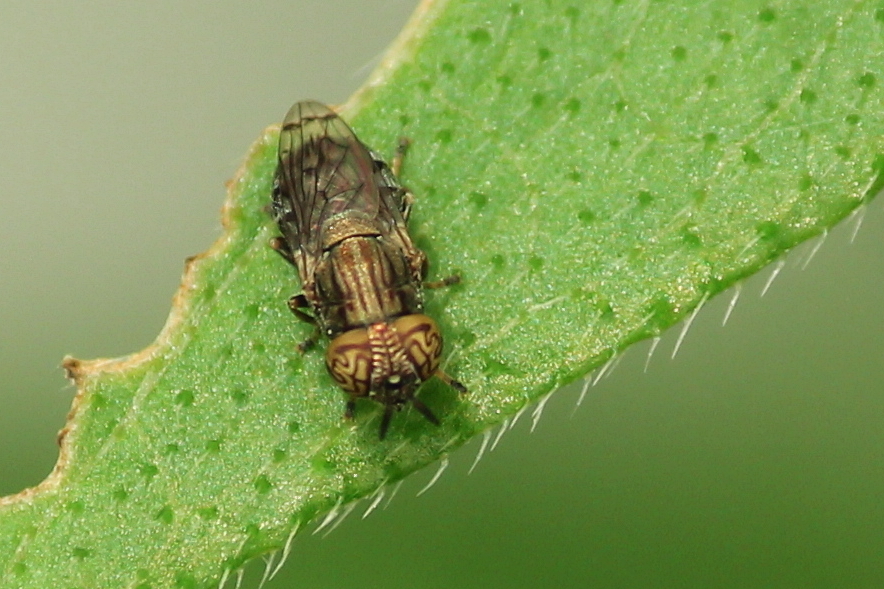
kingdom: Animalia
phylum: Arthropoda
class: Insecta
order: Diptera
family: Syrphidae
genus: Orthonevra
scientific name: Orthonevra nitida
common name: Wavy mucksucker
